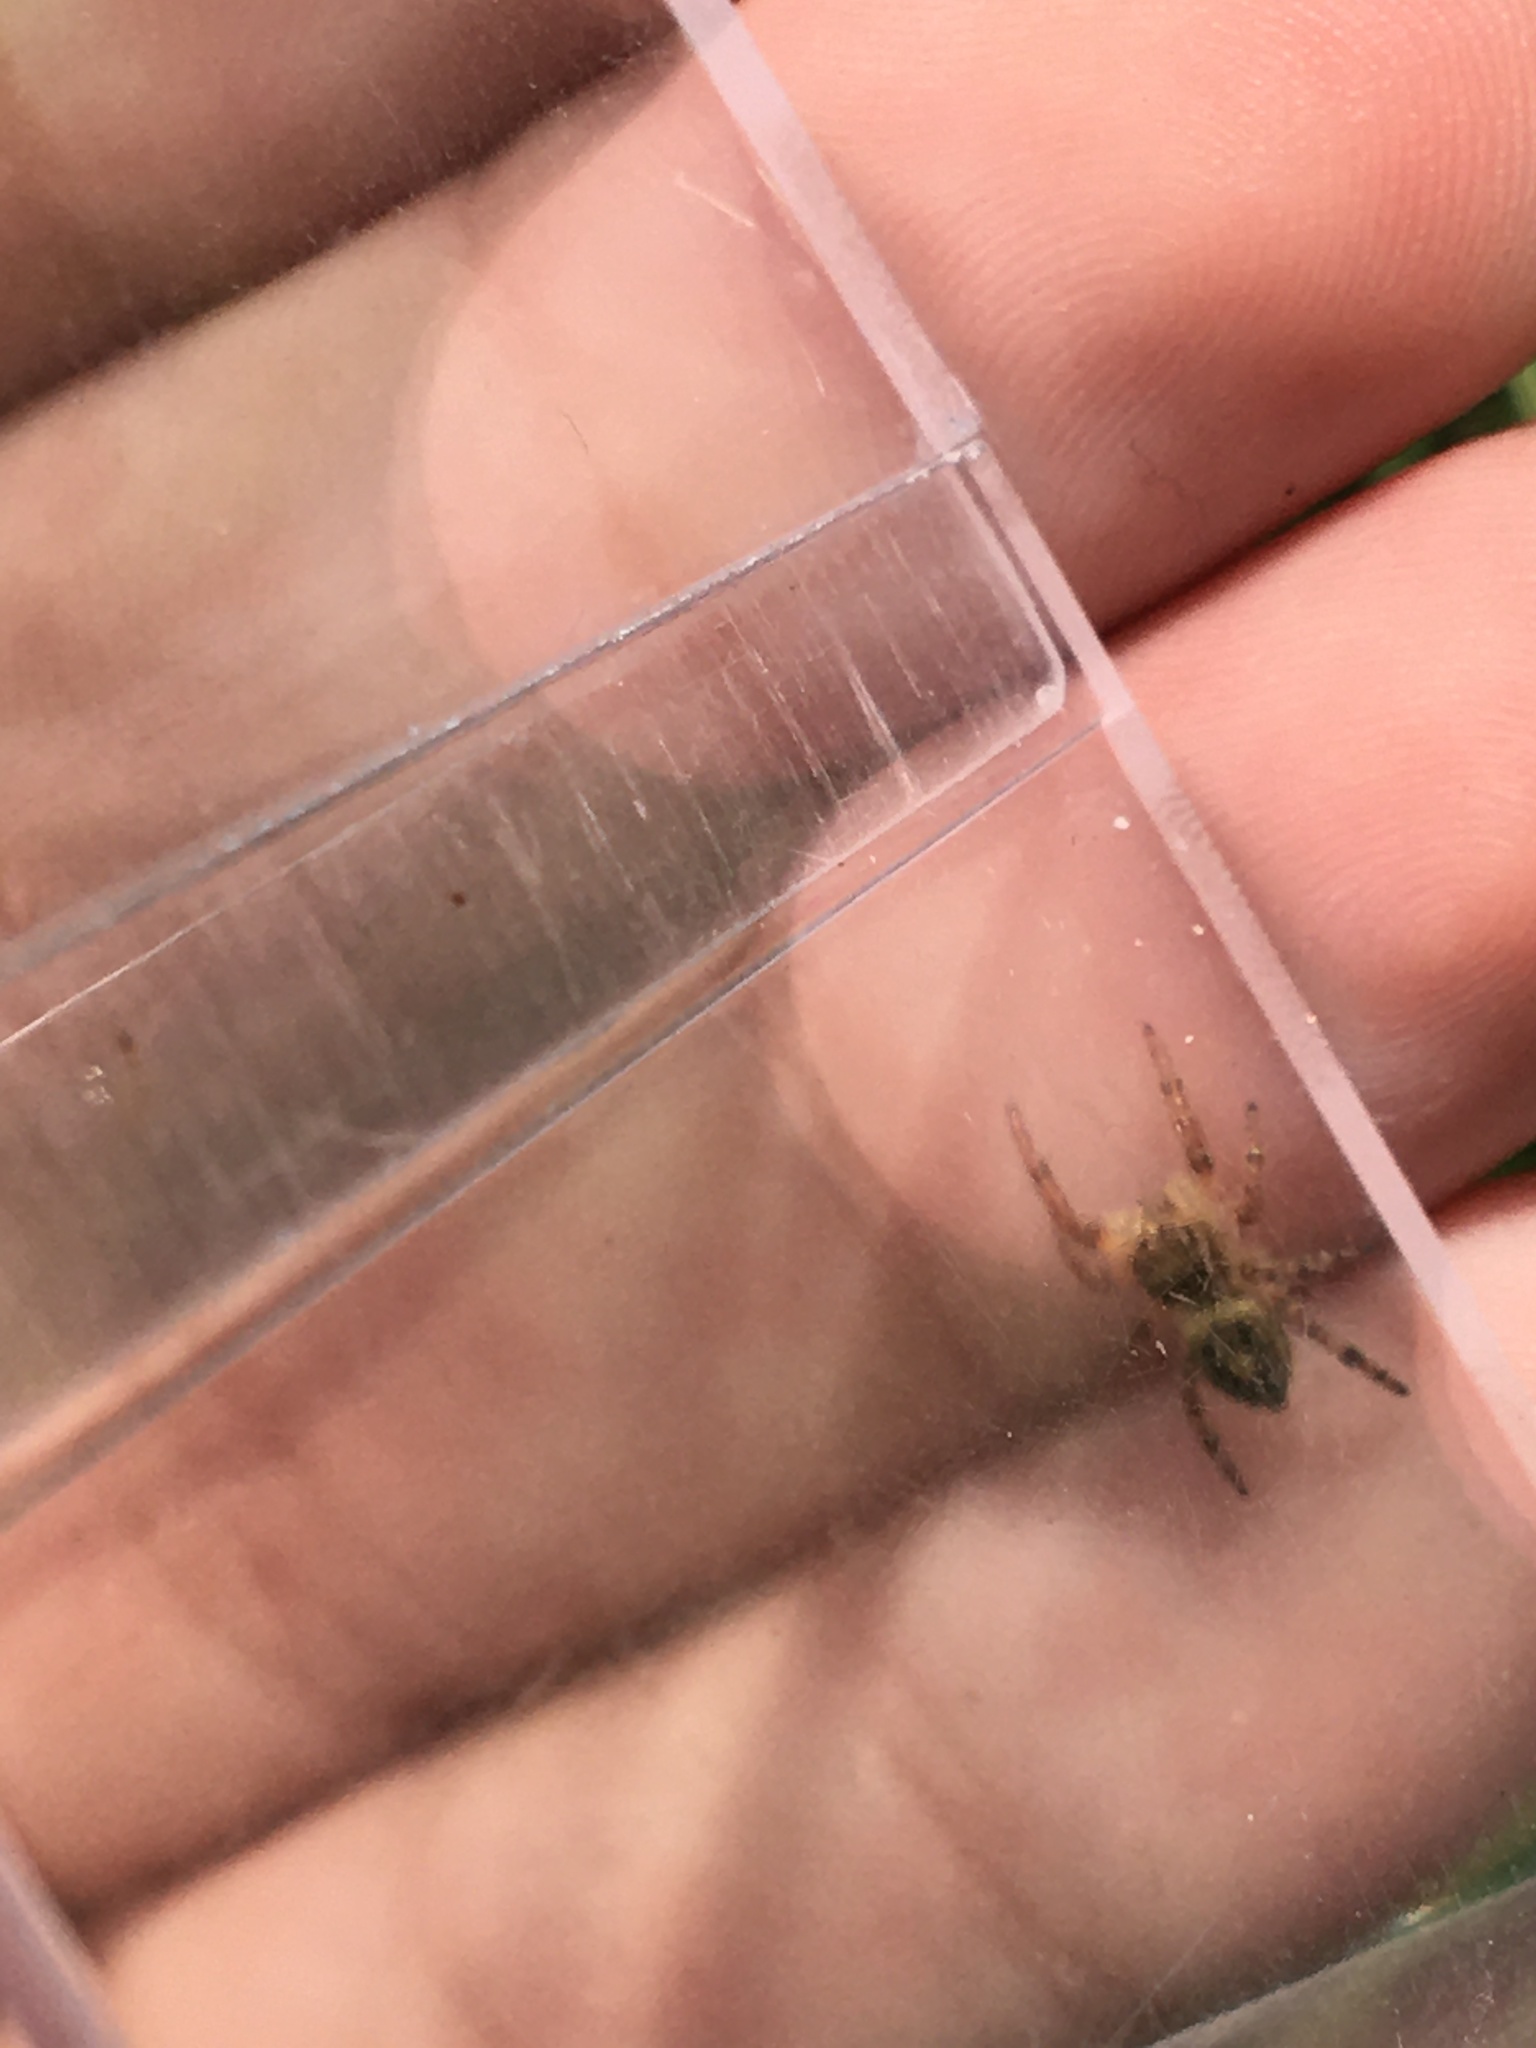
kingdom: Animalia
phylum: Arthropoda
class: Arachnida
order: Araneae
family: Salticidae
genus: Phidippus
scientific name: Phidippus princeps
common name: Grayish jumping spider
